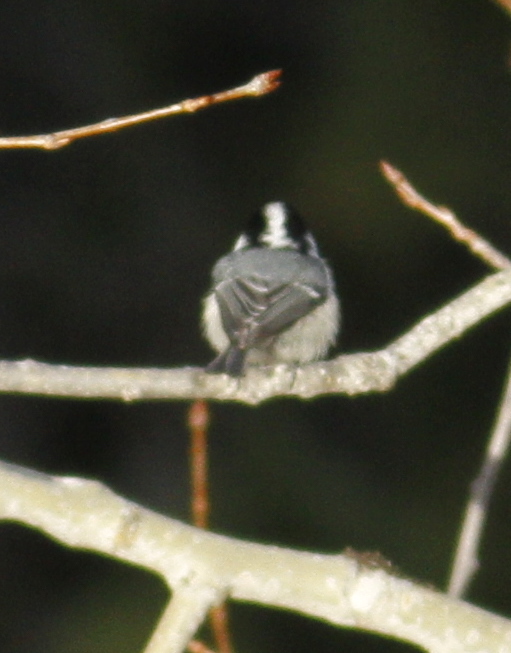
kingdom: Animalia
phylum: Chordata
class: Aves
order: Passeriformes
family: Paridae
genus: Periparus
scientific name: Periparus ater
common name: Coal tit
